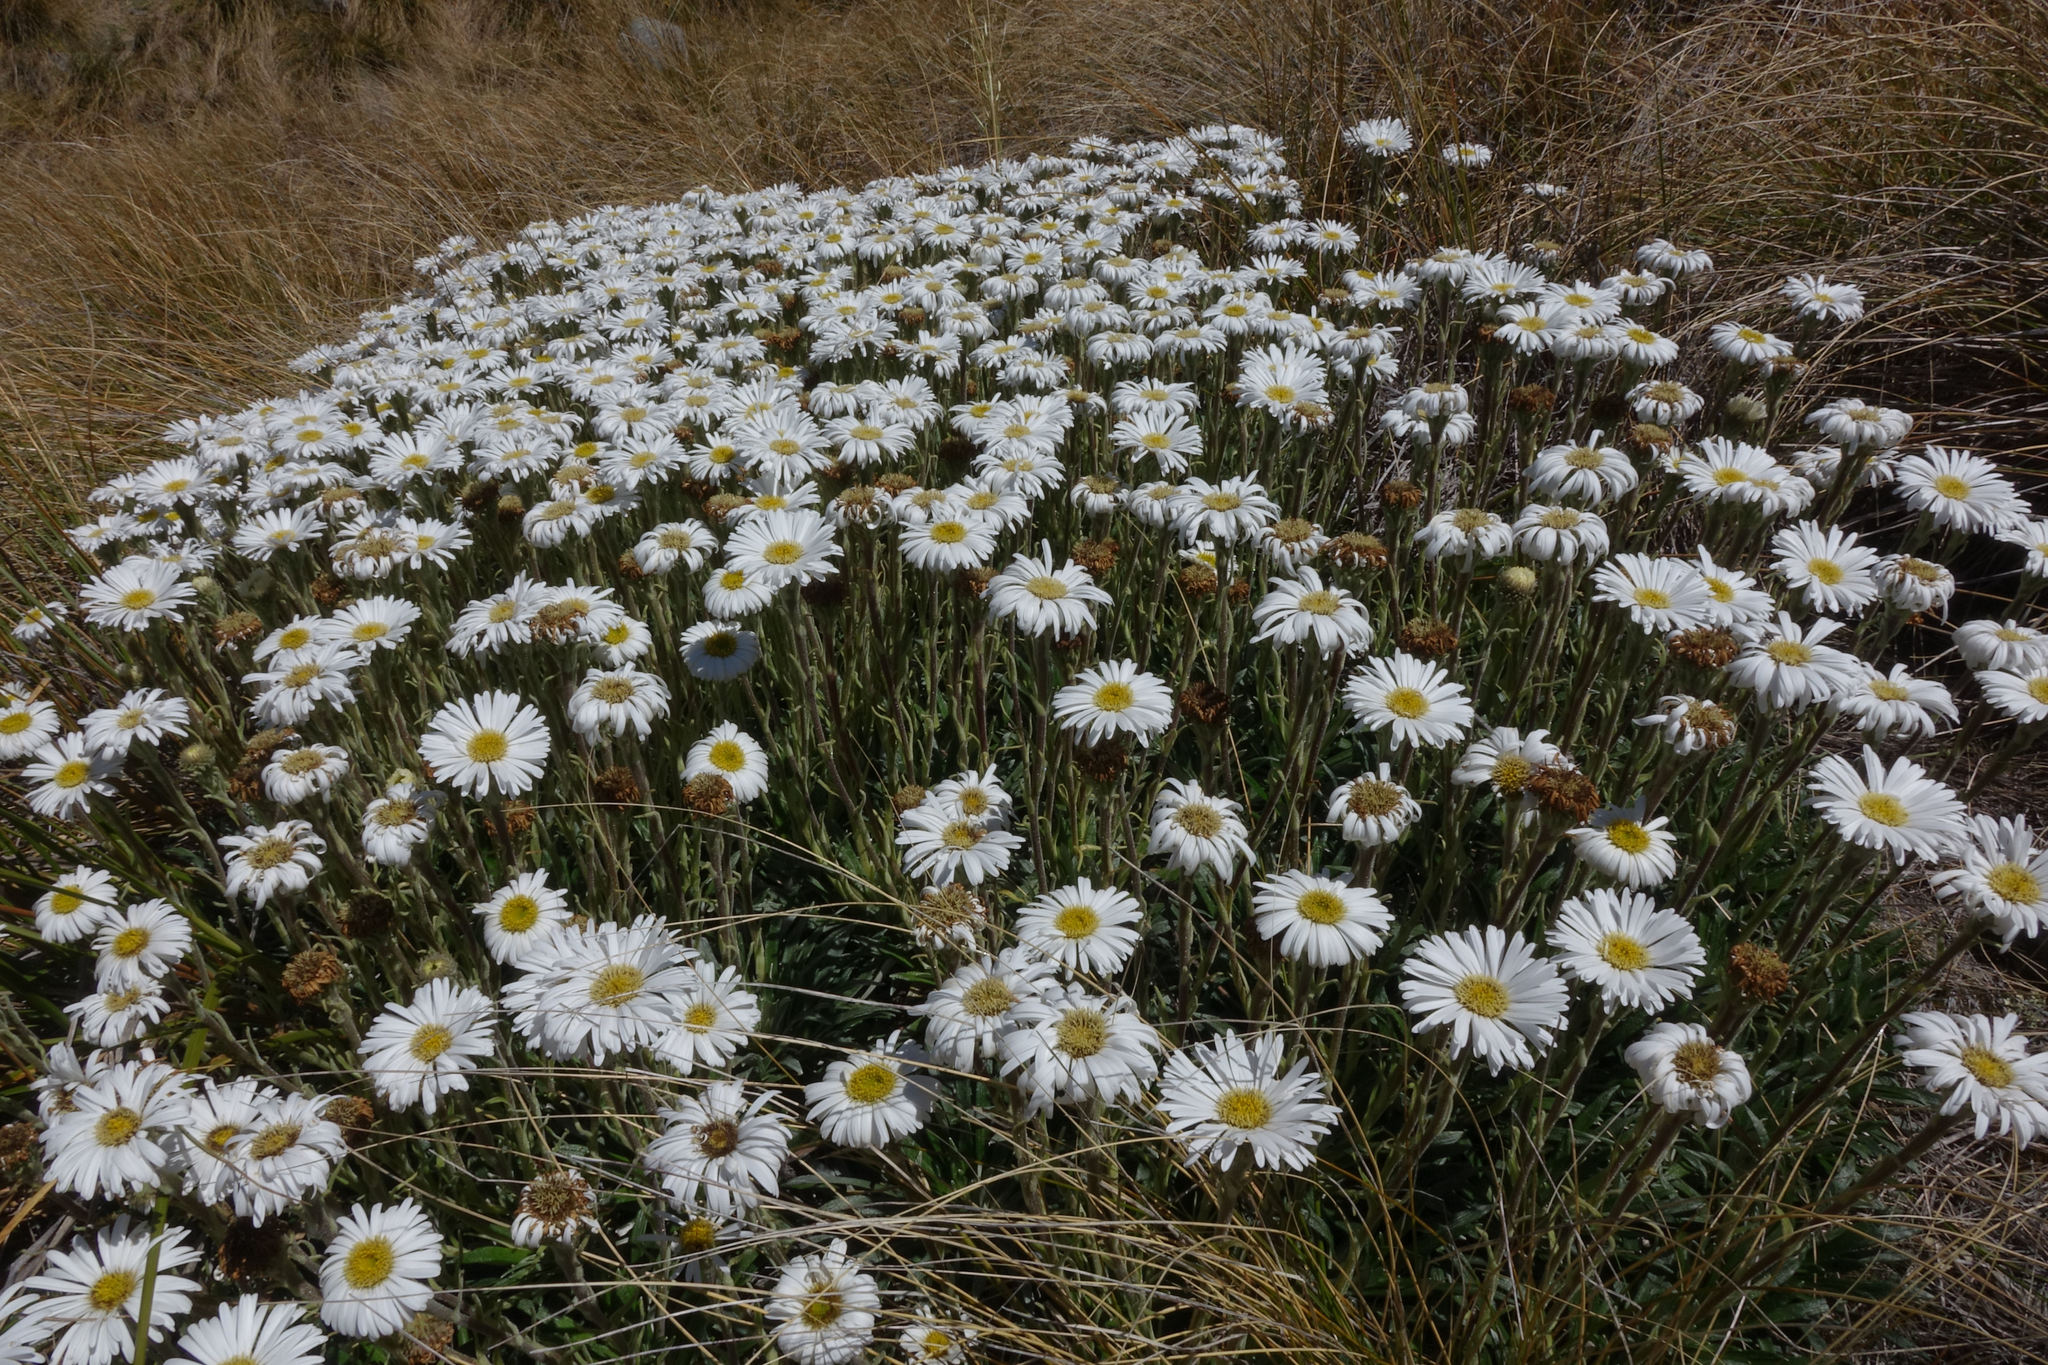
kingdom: Plantae
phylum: Tracheophyta
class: Magnoliopsida
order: Asterales
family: Asteraceae
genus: Celmisia
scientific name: Celmisia viscosa
